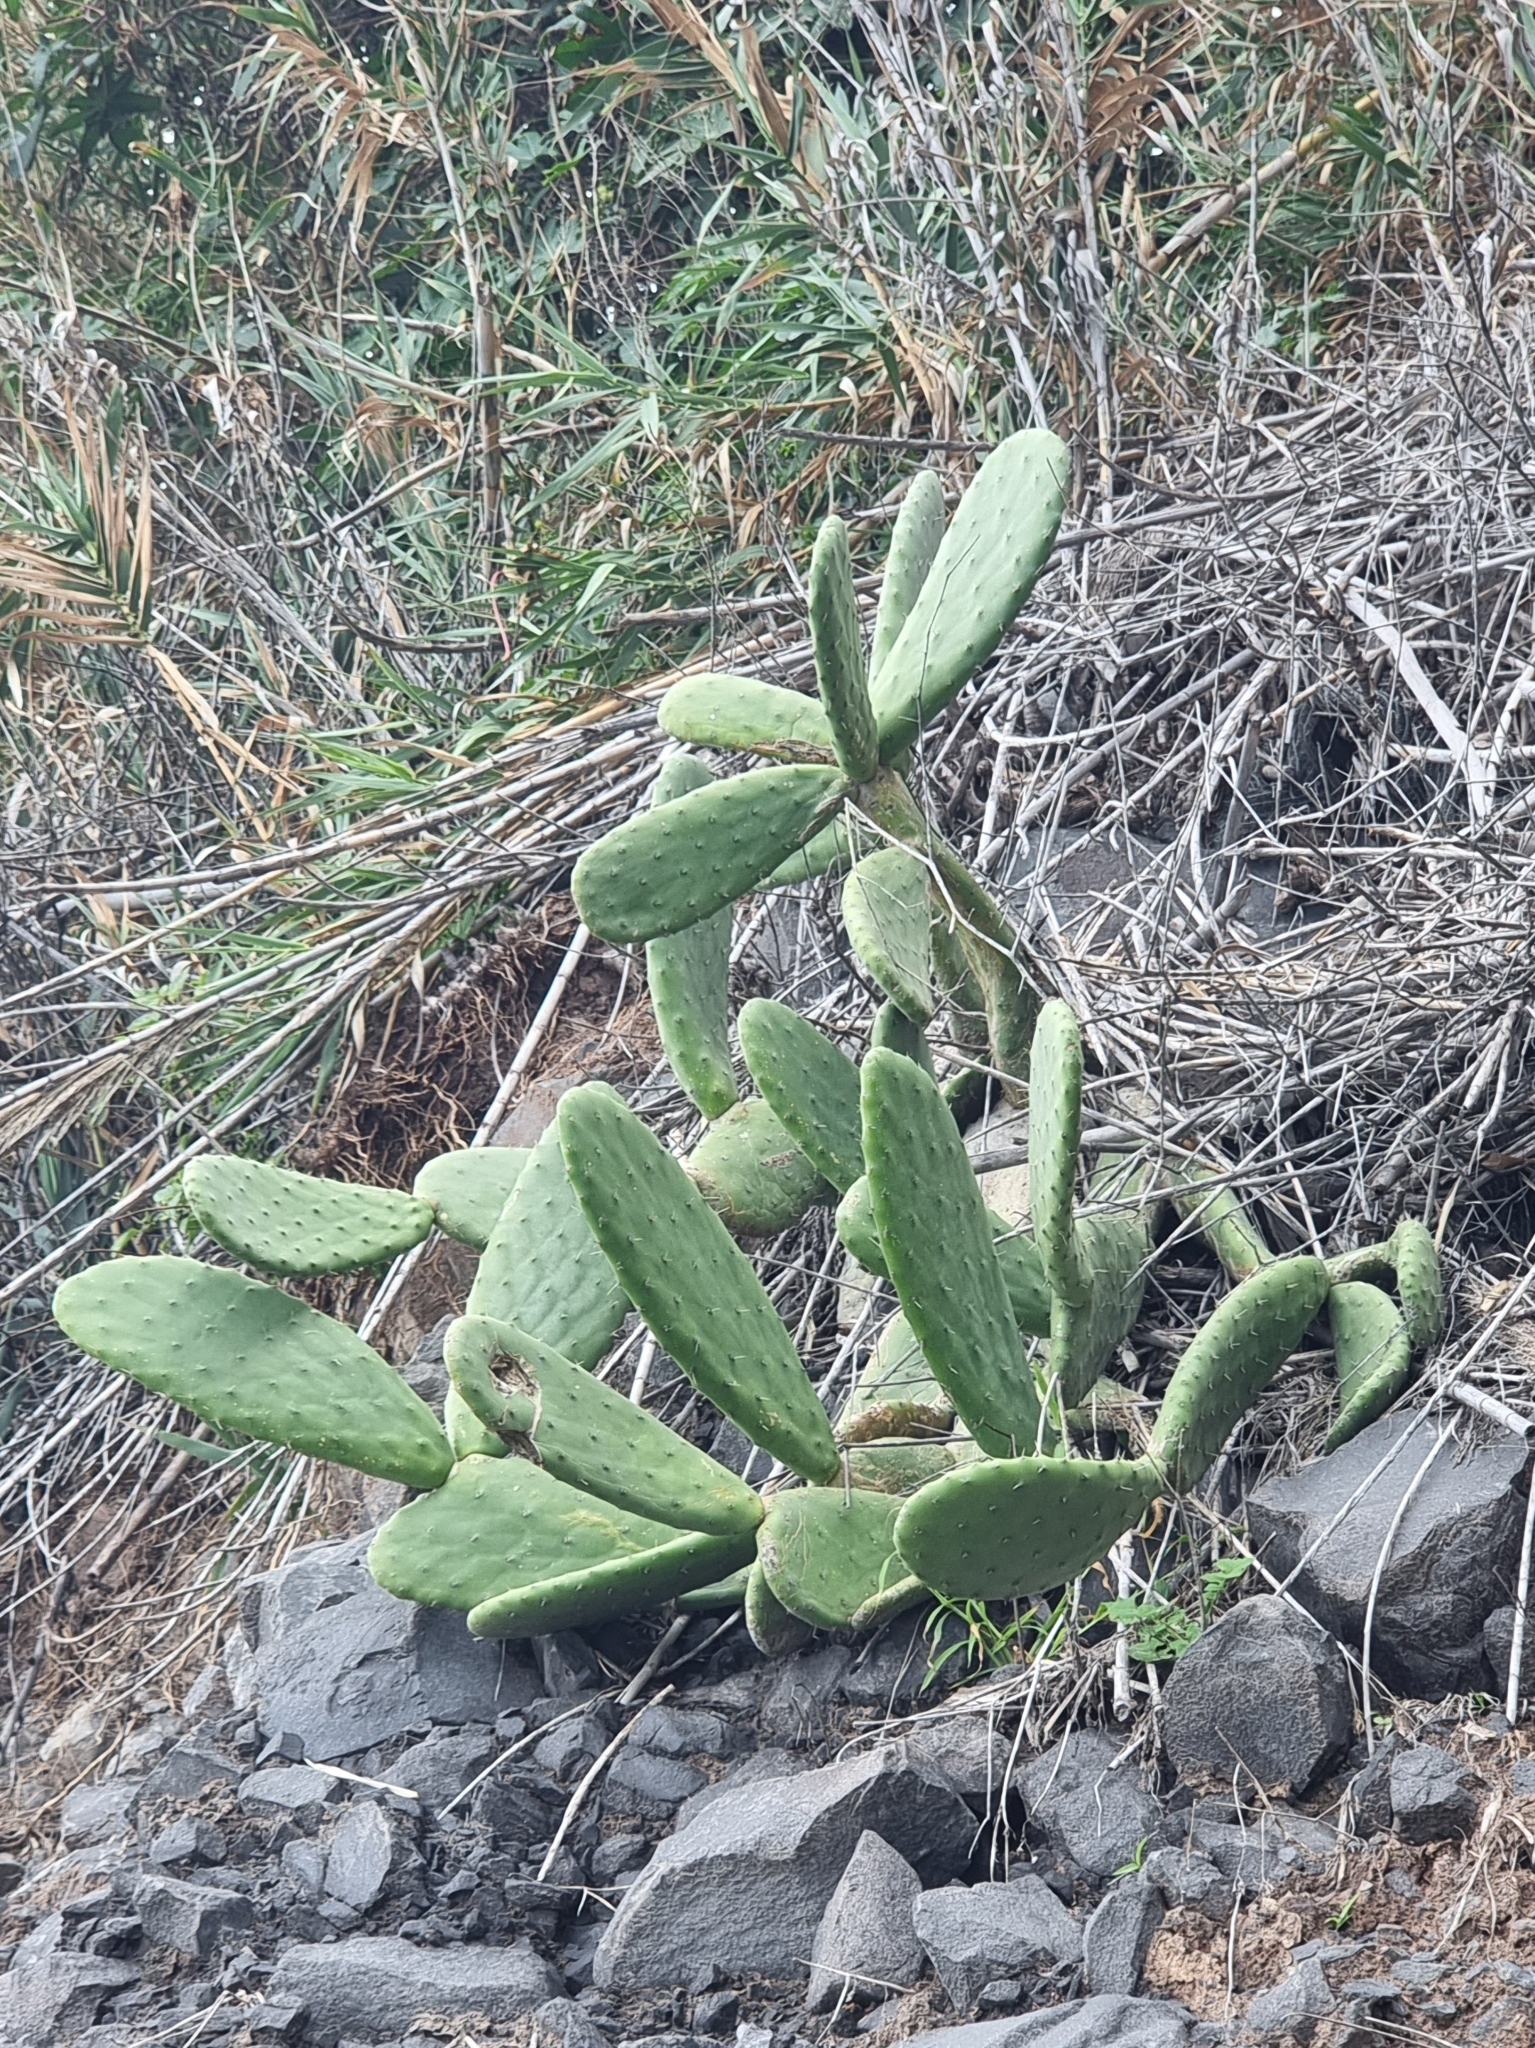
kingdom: Plantae
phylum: Tracheophyta
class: Magnoliopsida
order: Caryophyllales
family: Cactaceae
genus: Opuntia
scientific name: Opuntia ficus-indica
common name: Barbary fig
